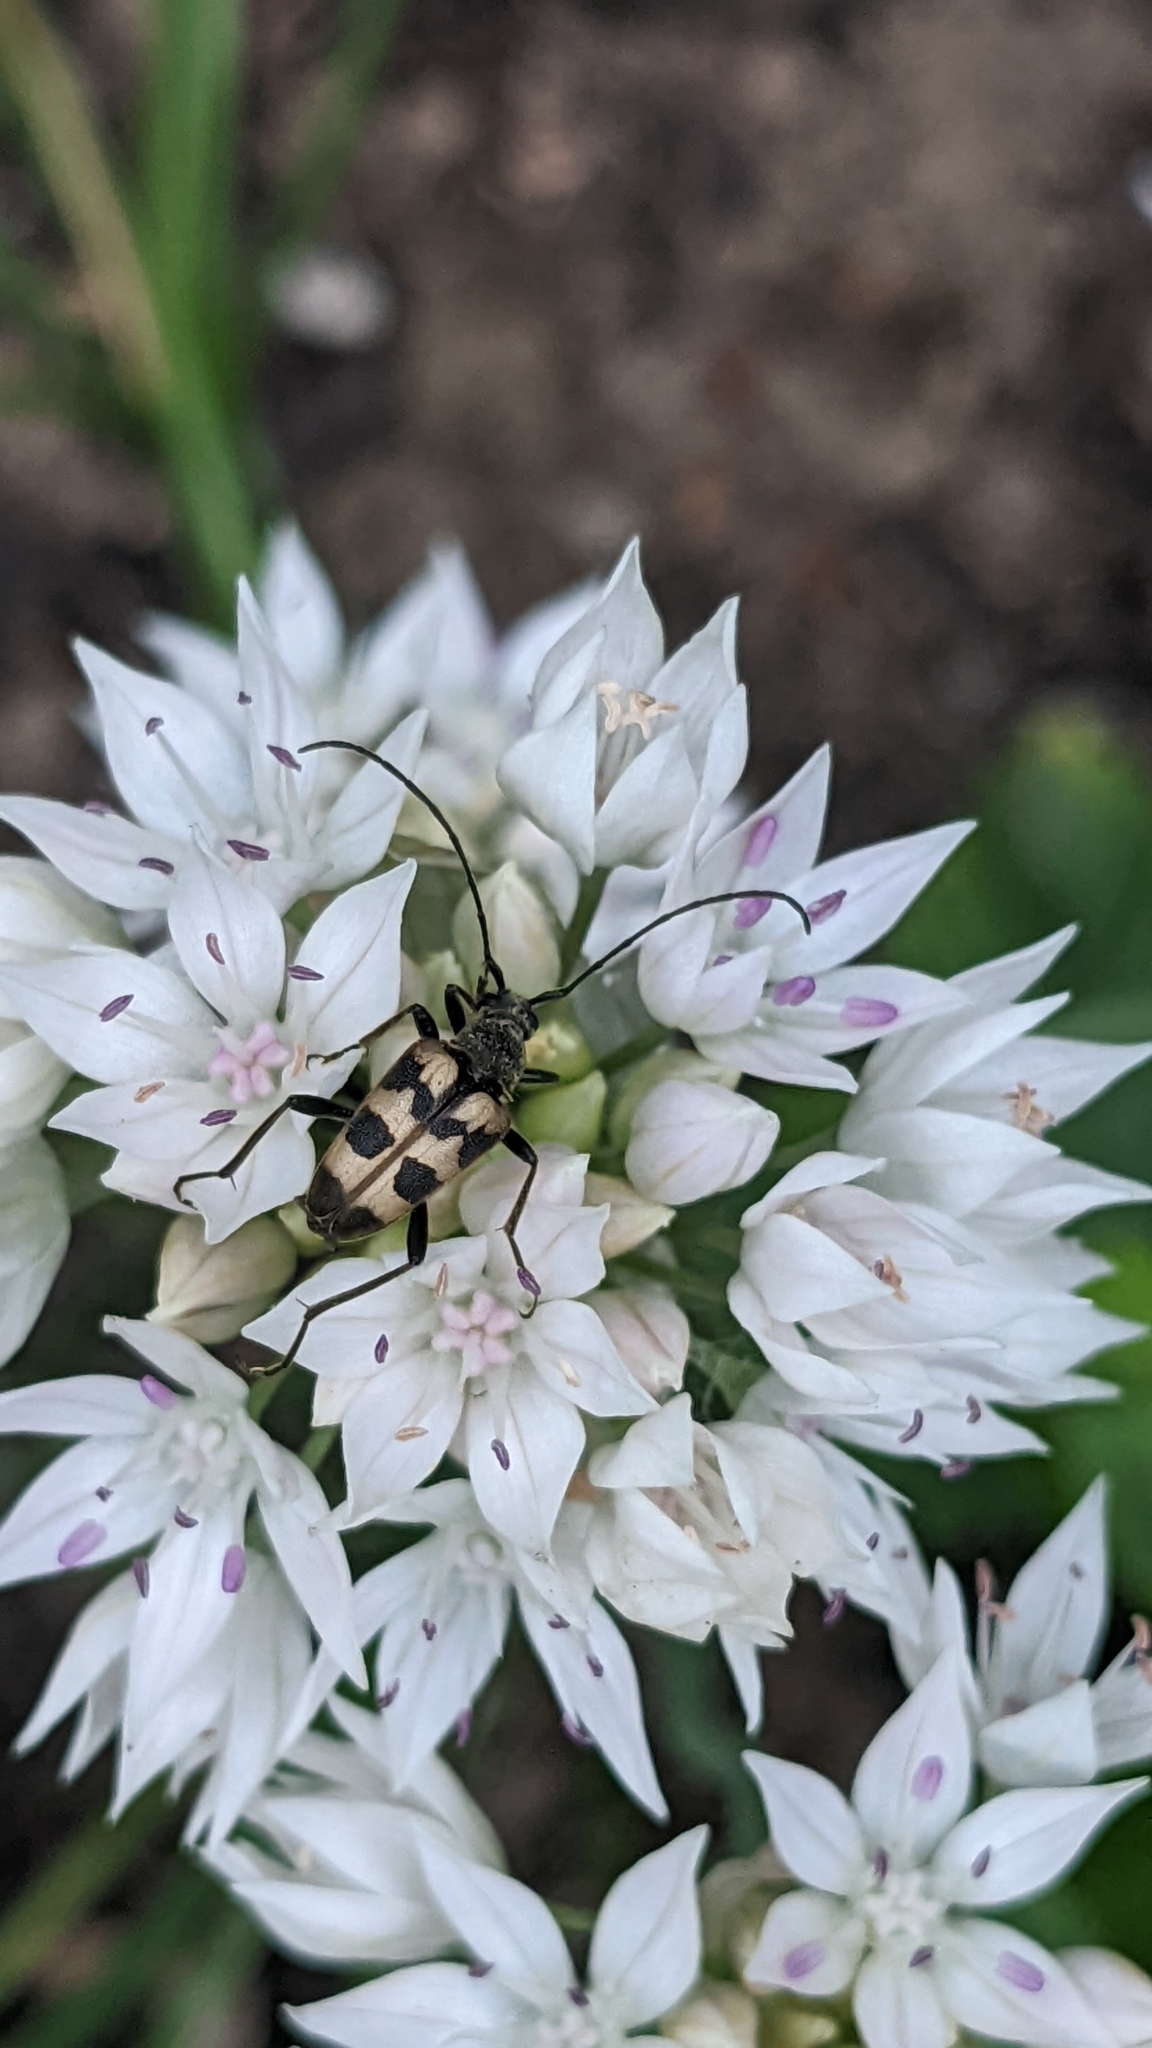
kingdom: Animalia
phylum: Arthropoda
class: Insecta
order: Coleoptera
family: Cerambycidae
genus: Pachytodes
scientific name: Pachytodes cerambyciformis
